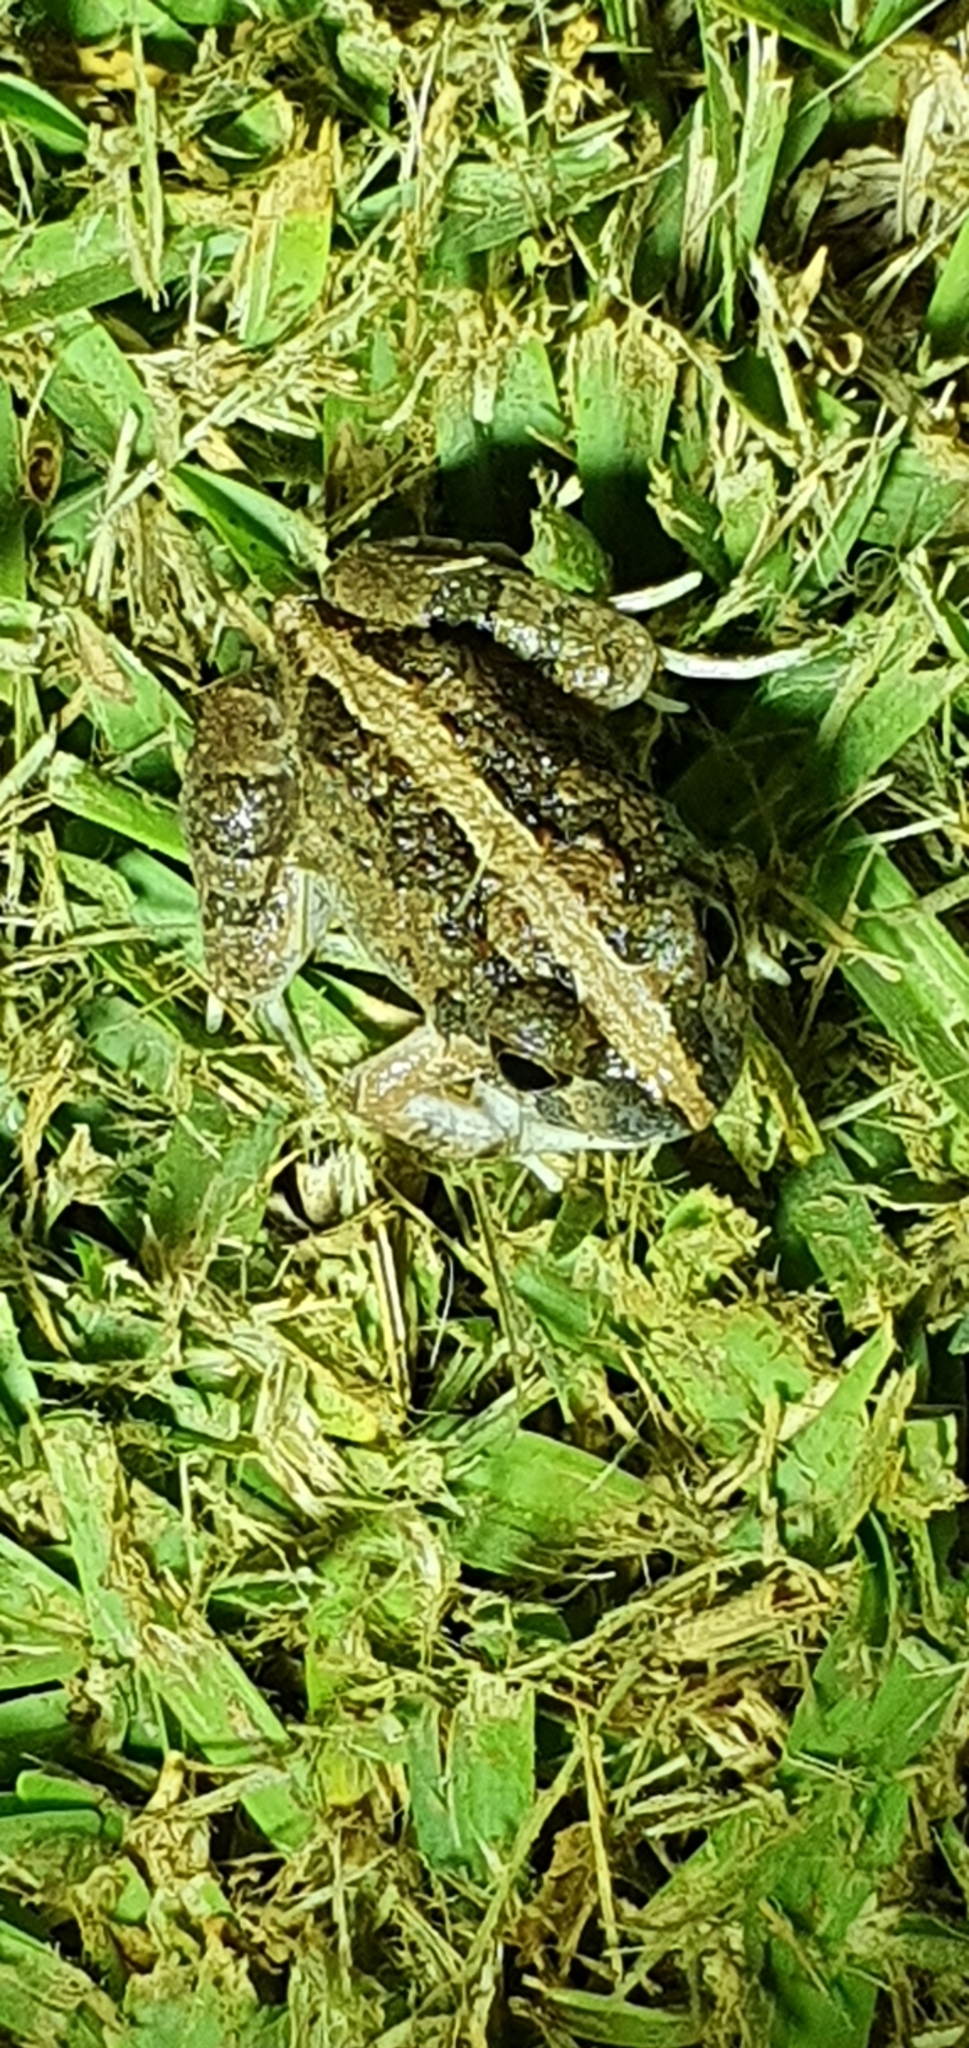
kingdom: Animalia
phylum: Chordata
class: Amphibia
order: Anura
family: Limnodynastidae
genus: Platyplectrum
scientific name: Platyplectrum ornatum
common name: Ornate burrowing frog
